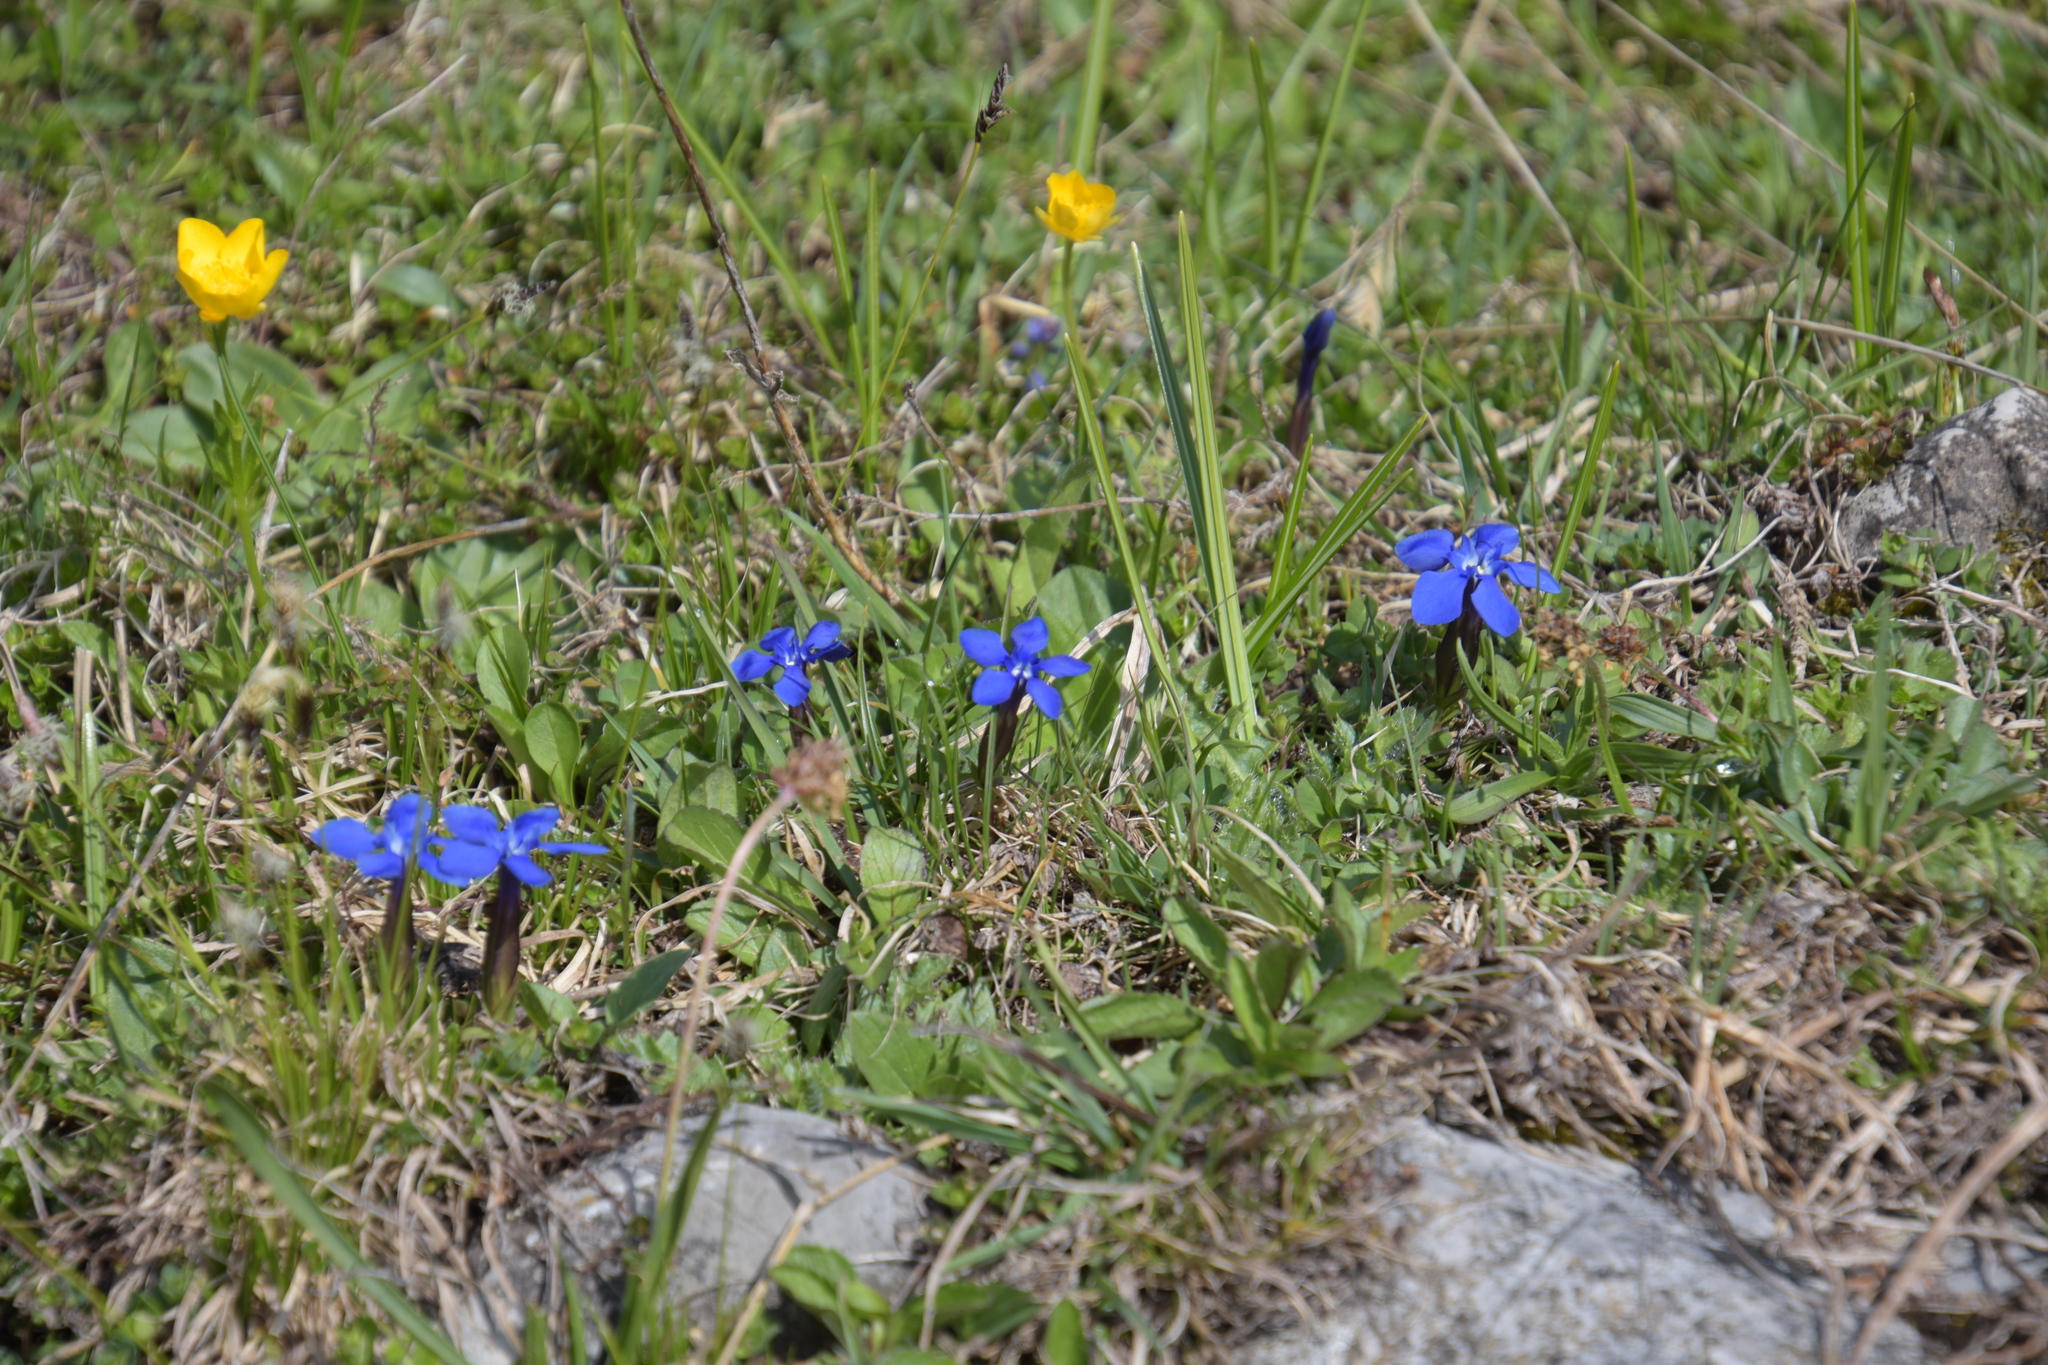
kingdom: Plantae
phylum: Tracheophyta
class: Magnoliopsida
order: Gentianales
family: Gentianaceae
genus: Gentiana
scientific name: Gentiana verna
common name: Spring gentian
